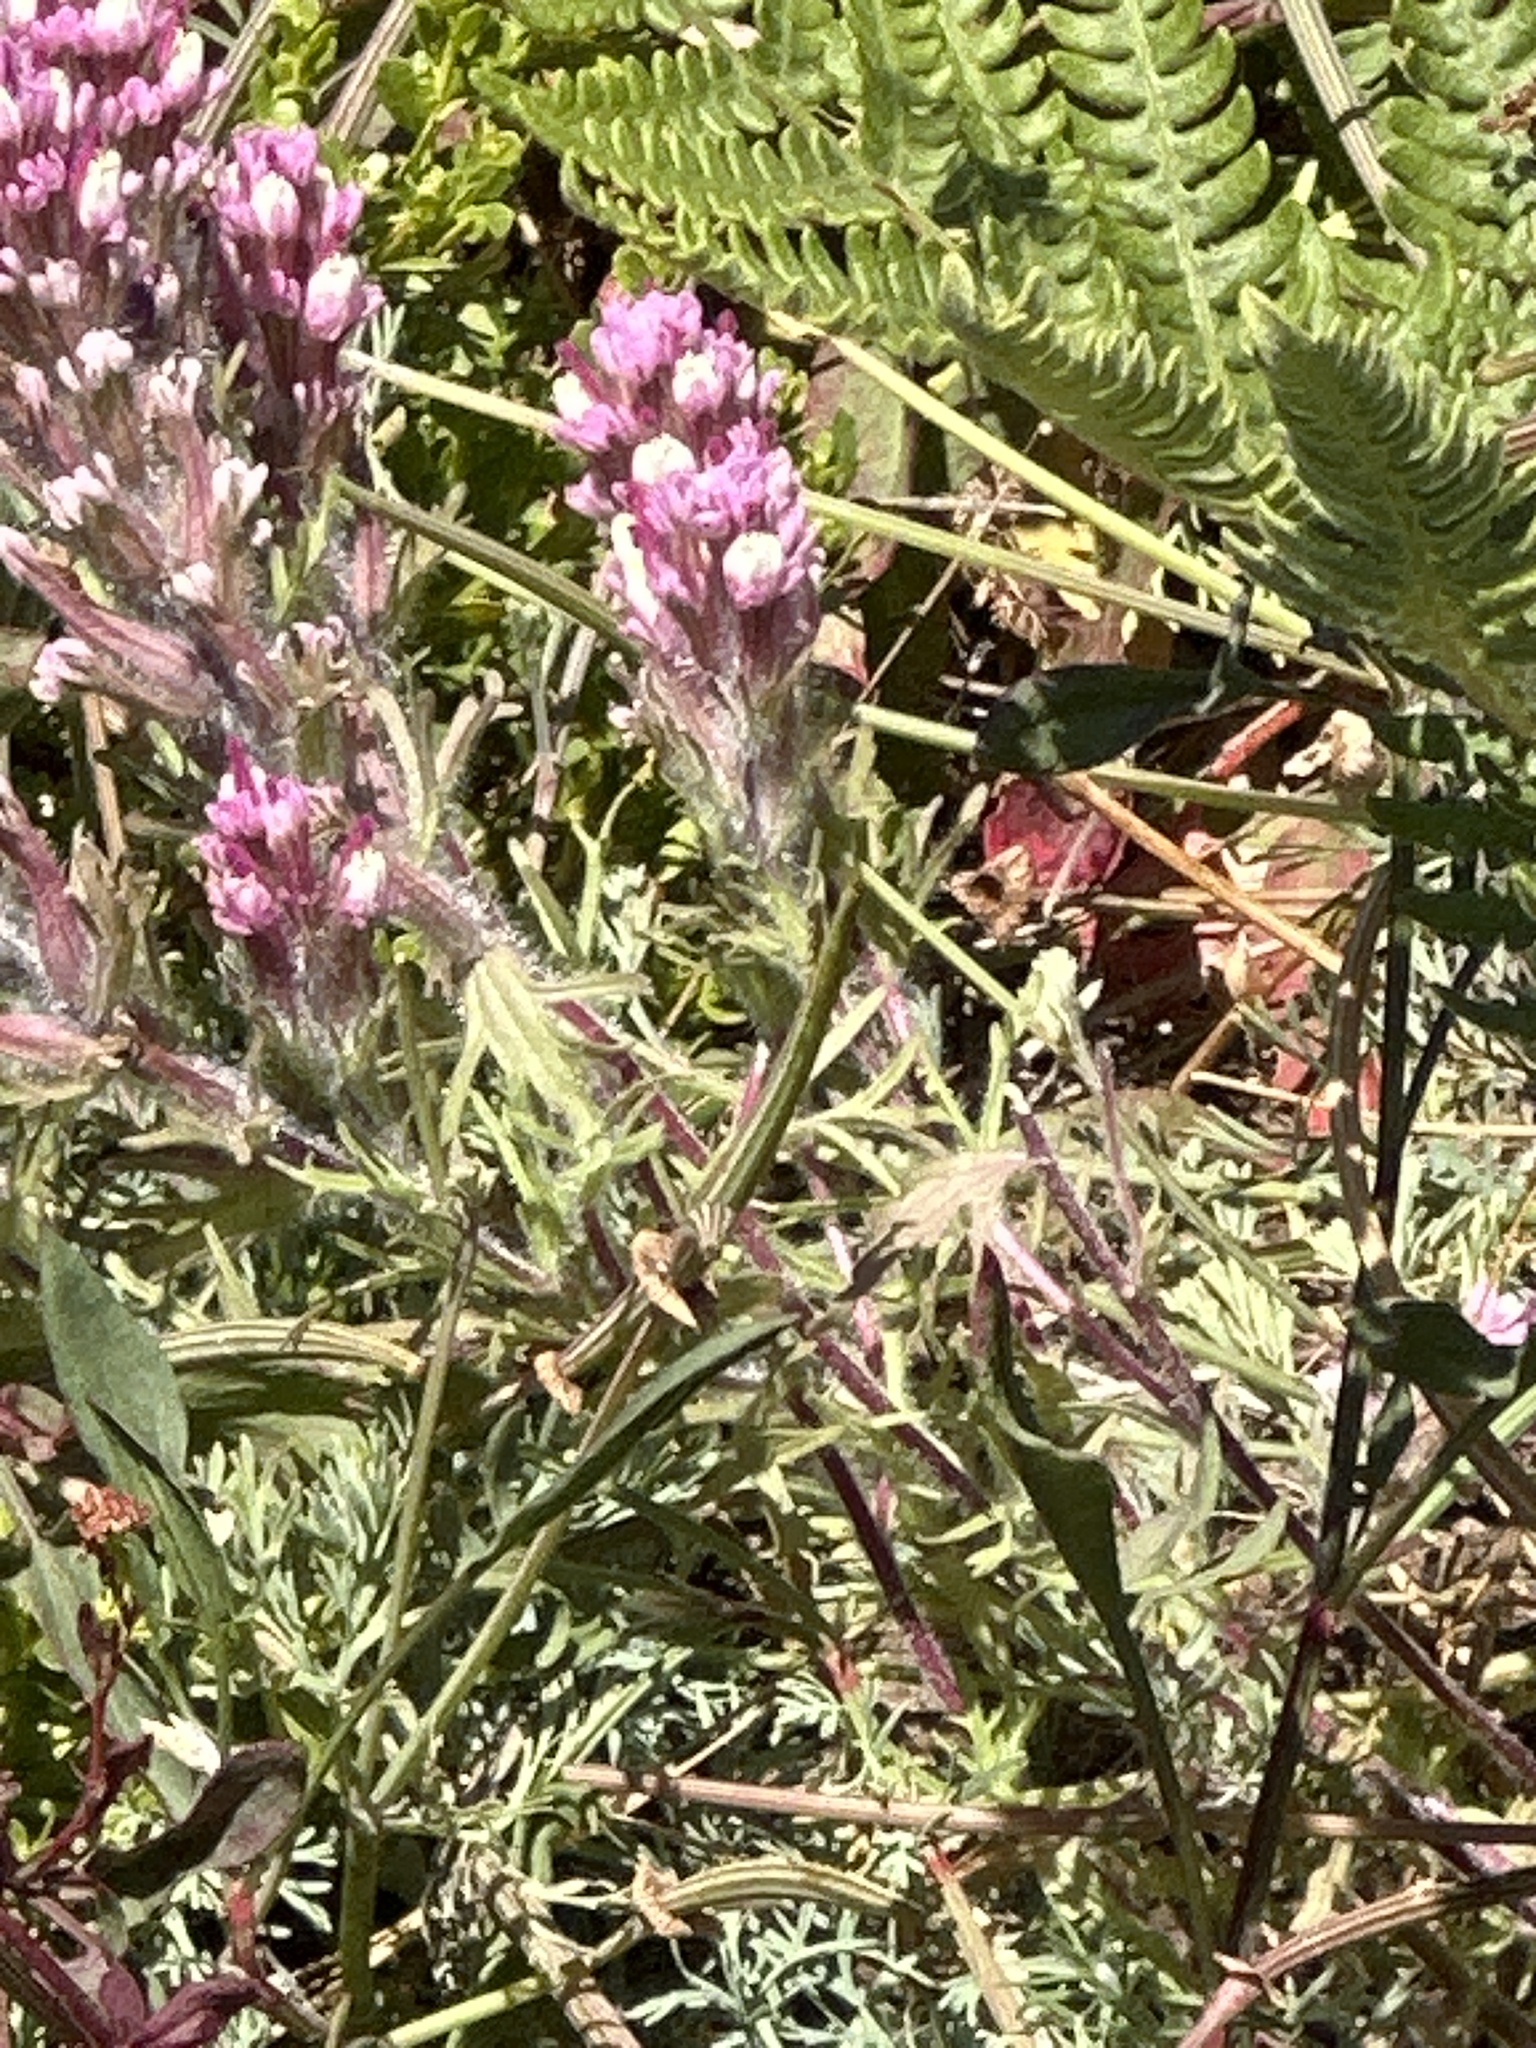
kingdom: Plantae
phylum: Tracheophyta
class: Magnoliopsida
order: Lamiales
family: Orobanchaceae
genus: Castilleja
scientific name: Castilleja exserta
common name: Purple owl-clover
